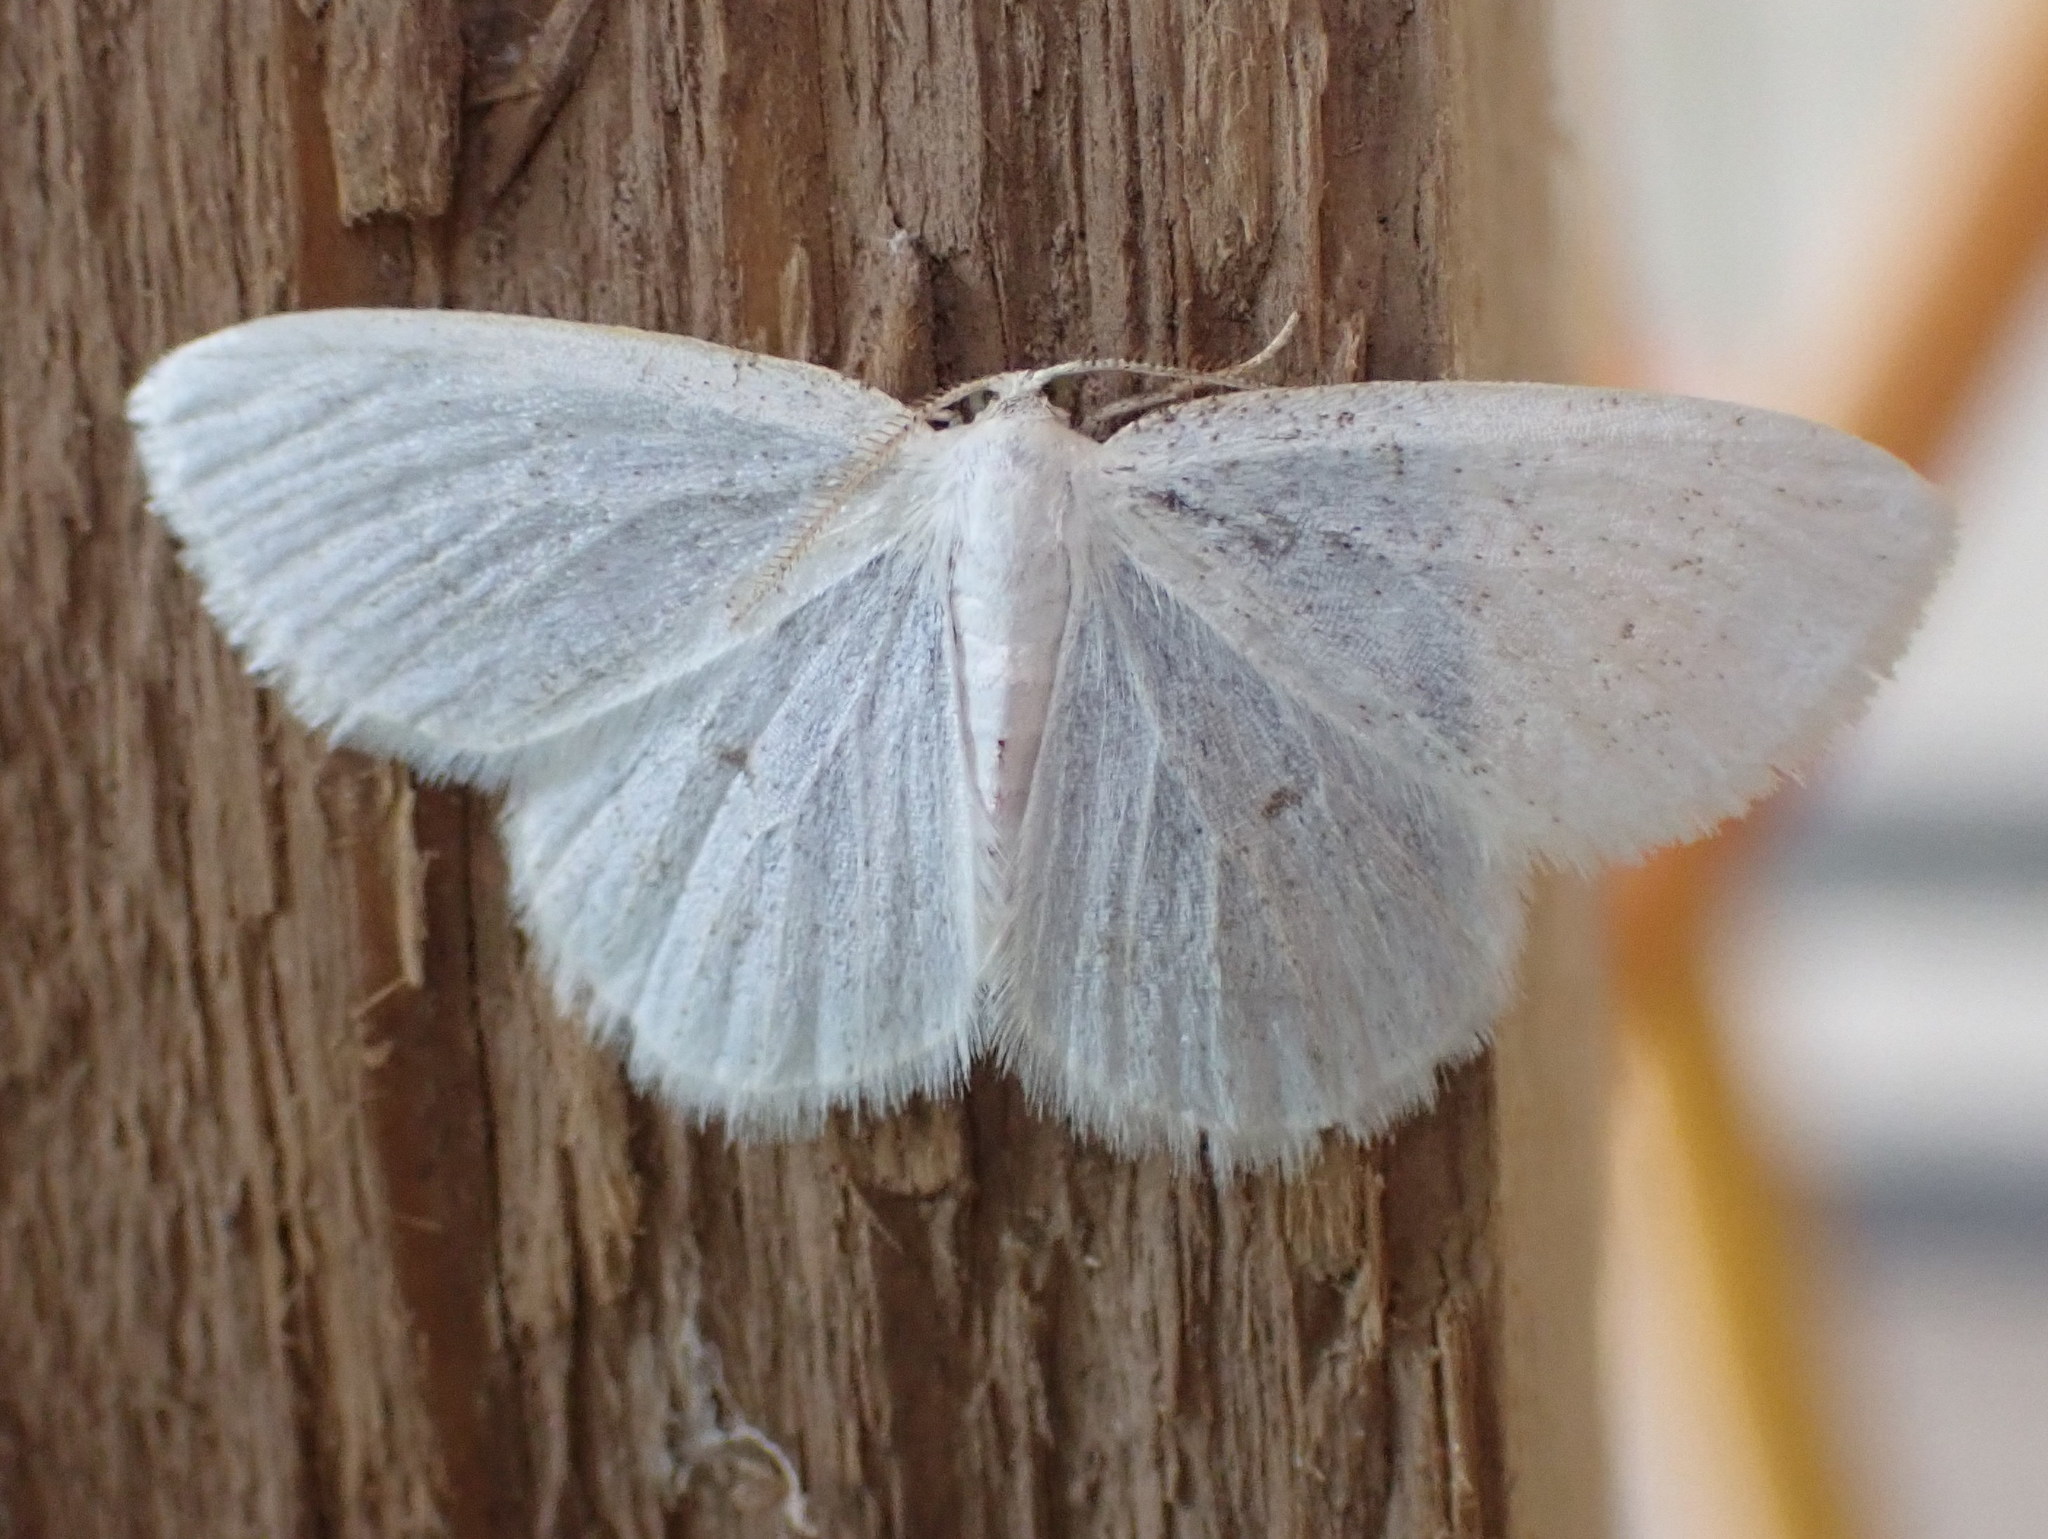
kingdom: Animalia
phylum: Arthropoda
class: Insecta
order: Lepidoptera
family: Geometridae
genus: Protitame
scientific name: Protitame virginalis
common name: Virgin moth
